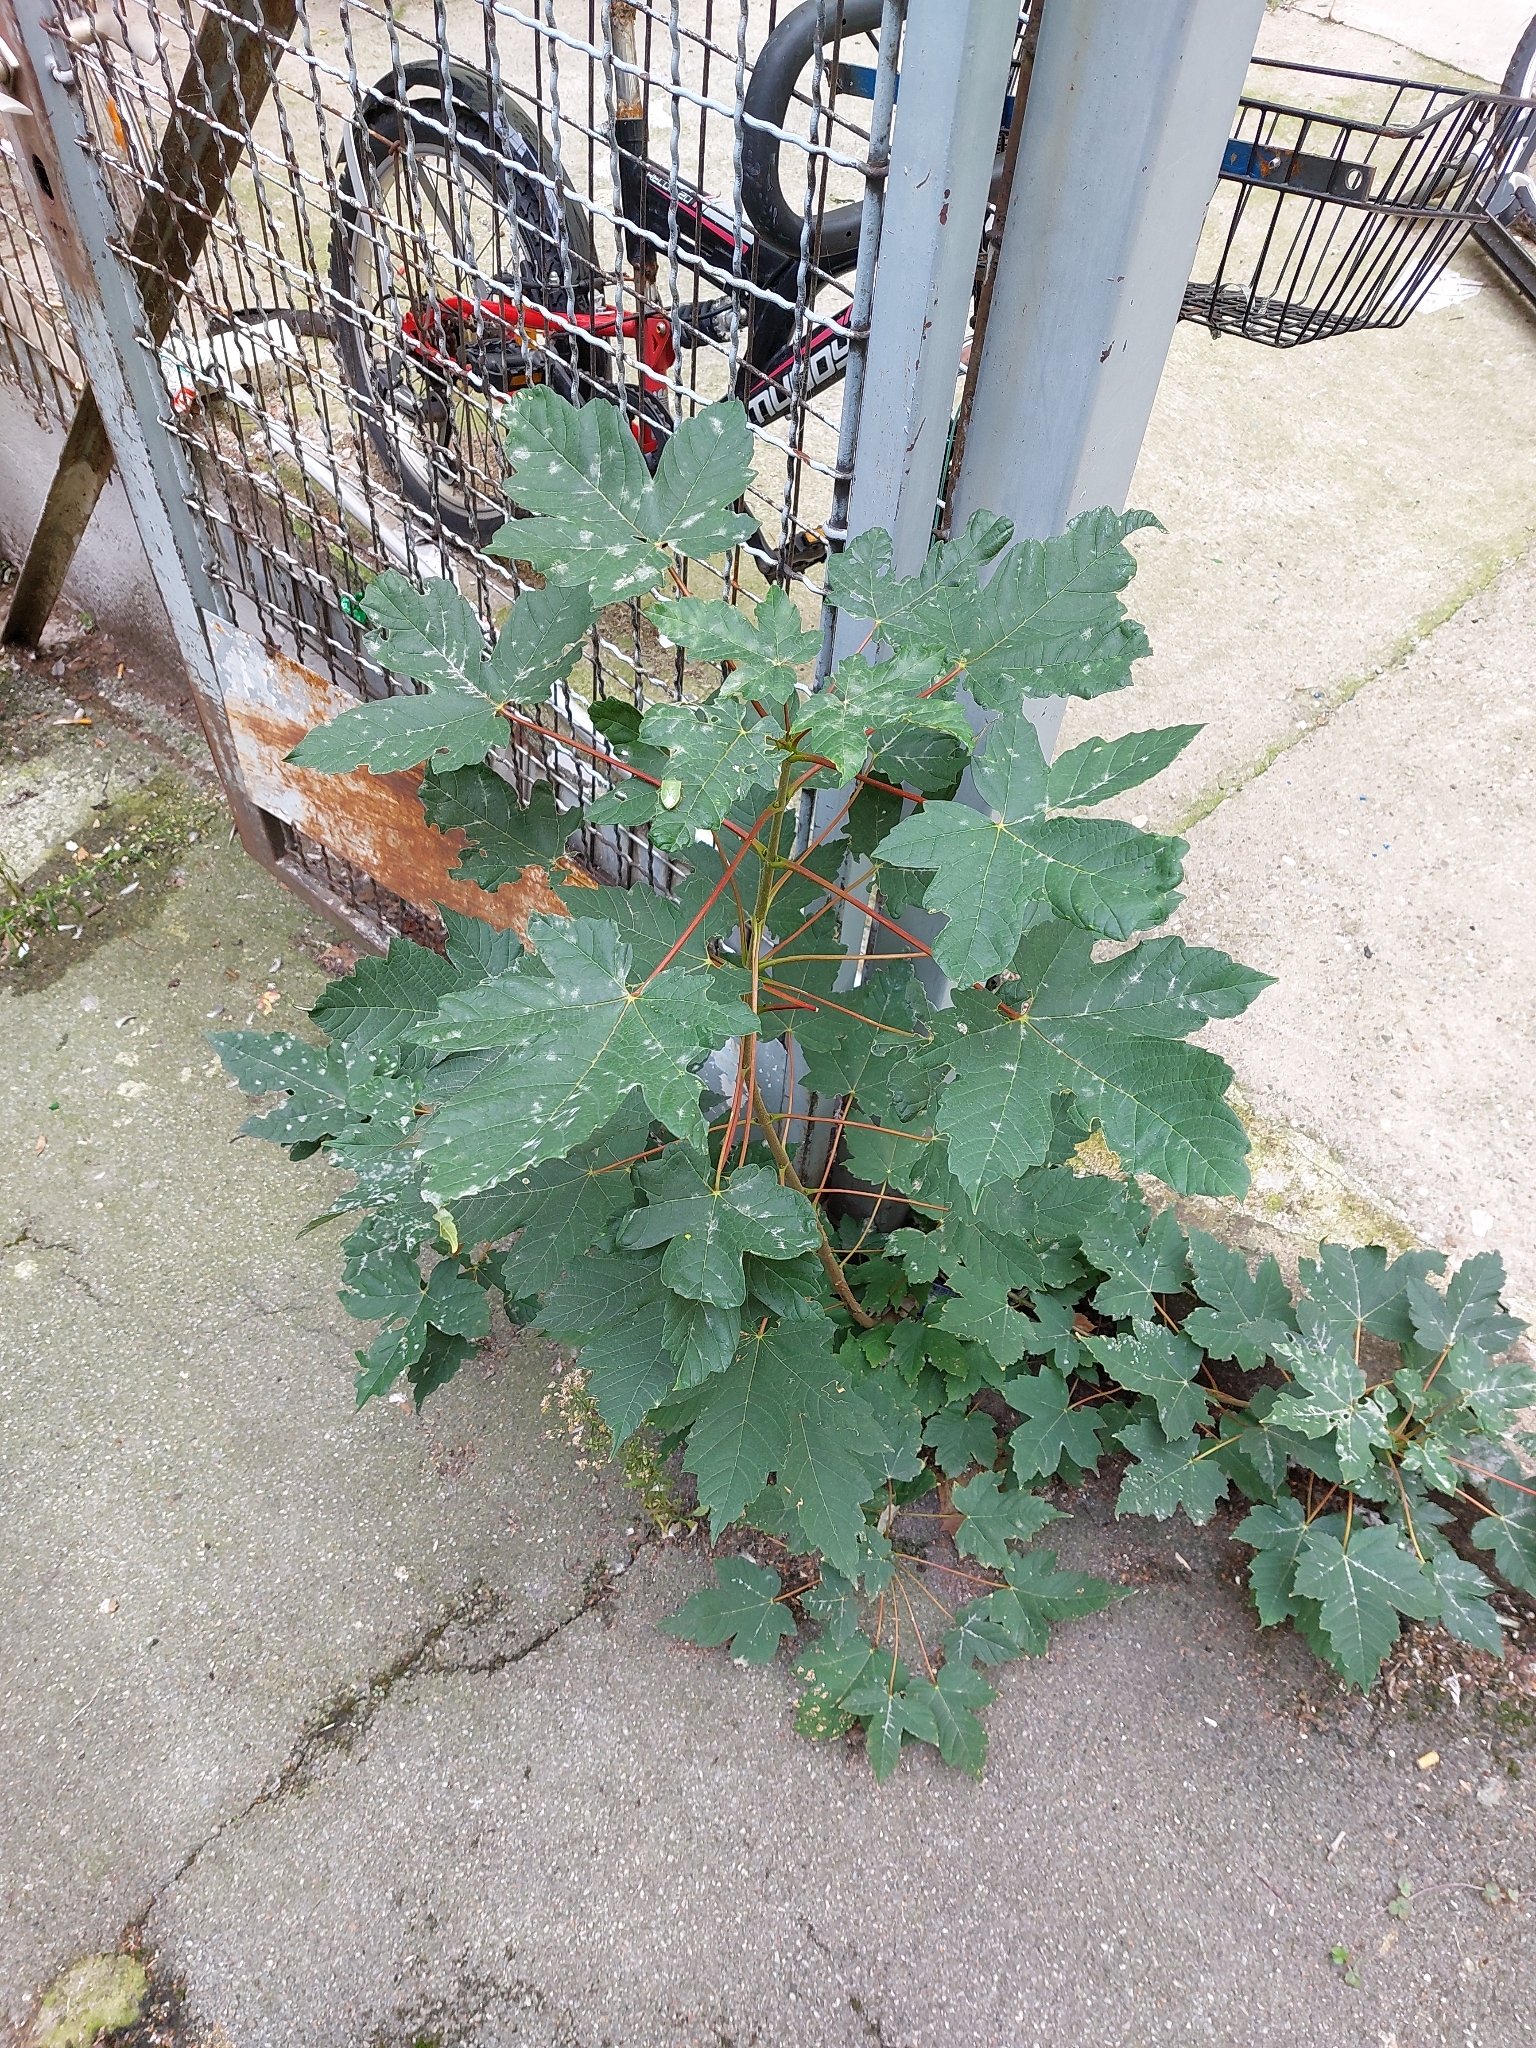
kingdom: Plantae
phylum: Tracheophyta
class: Magnoliopsida
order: Sapindales
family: Sapindaceae
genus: Acer
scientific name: Acer pseudoplatanus
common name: Sycamore
